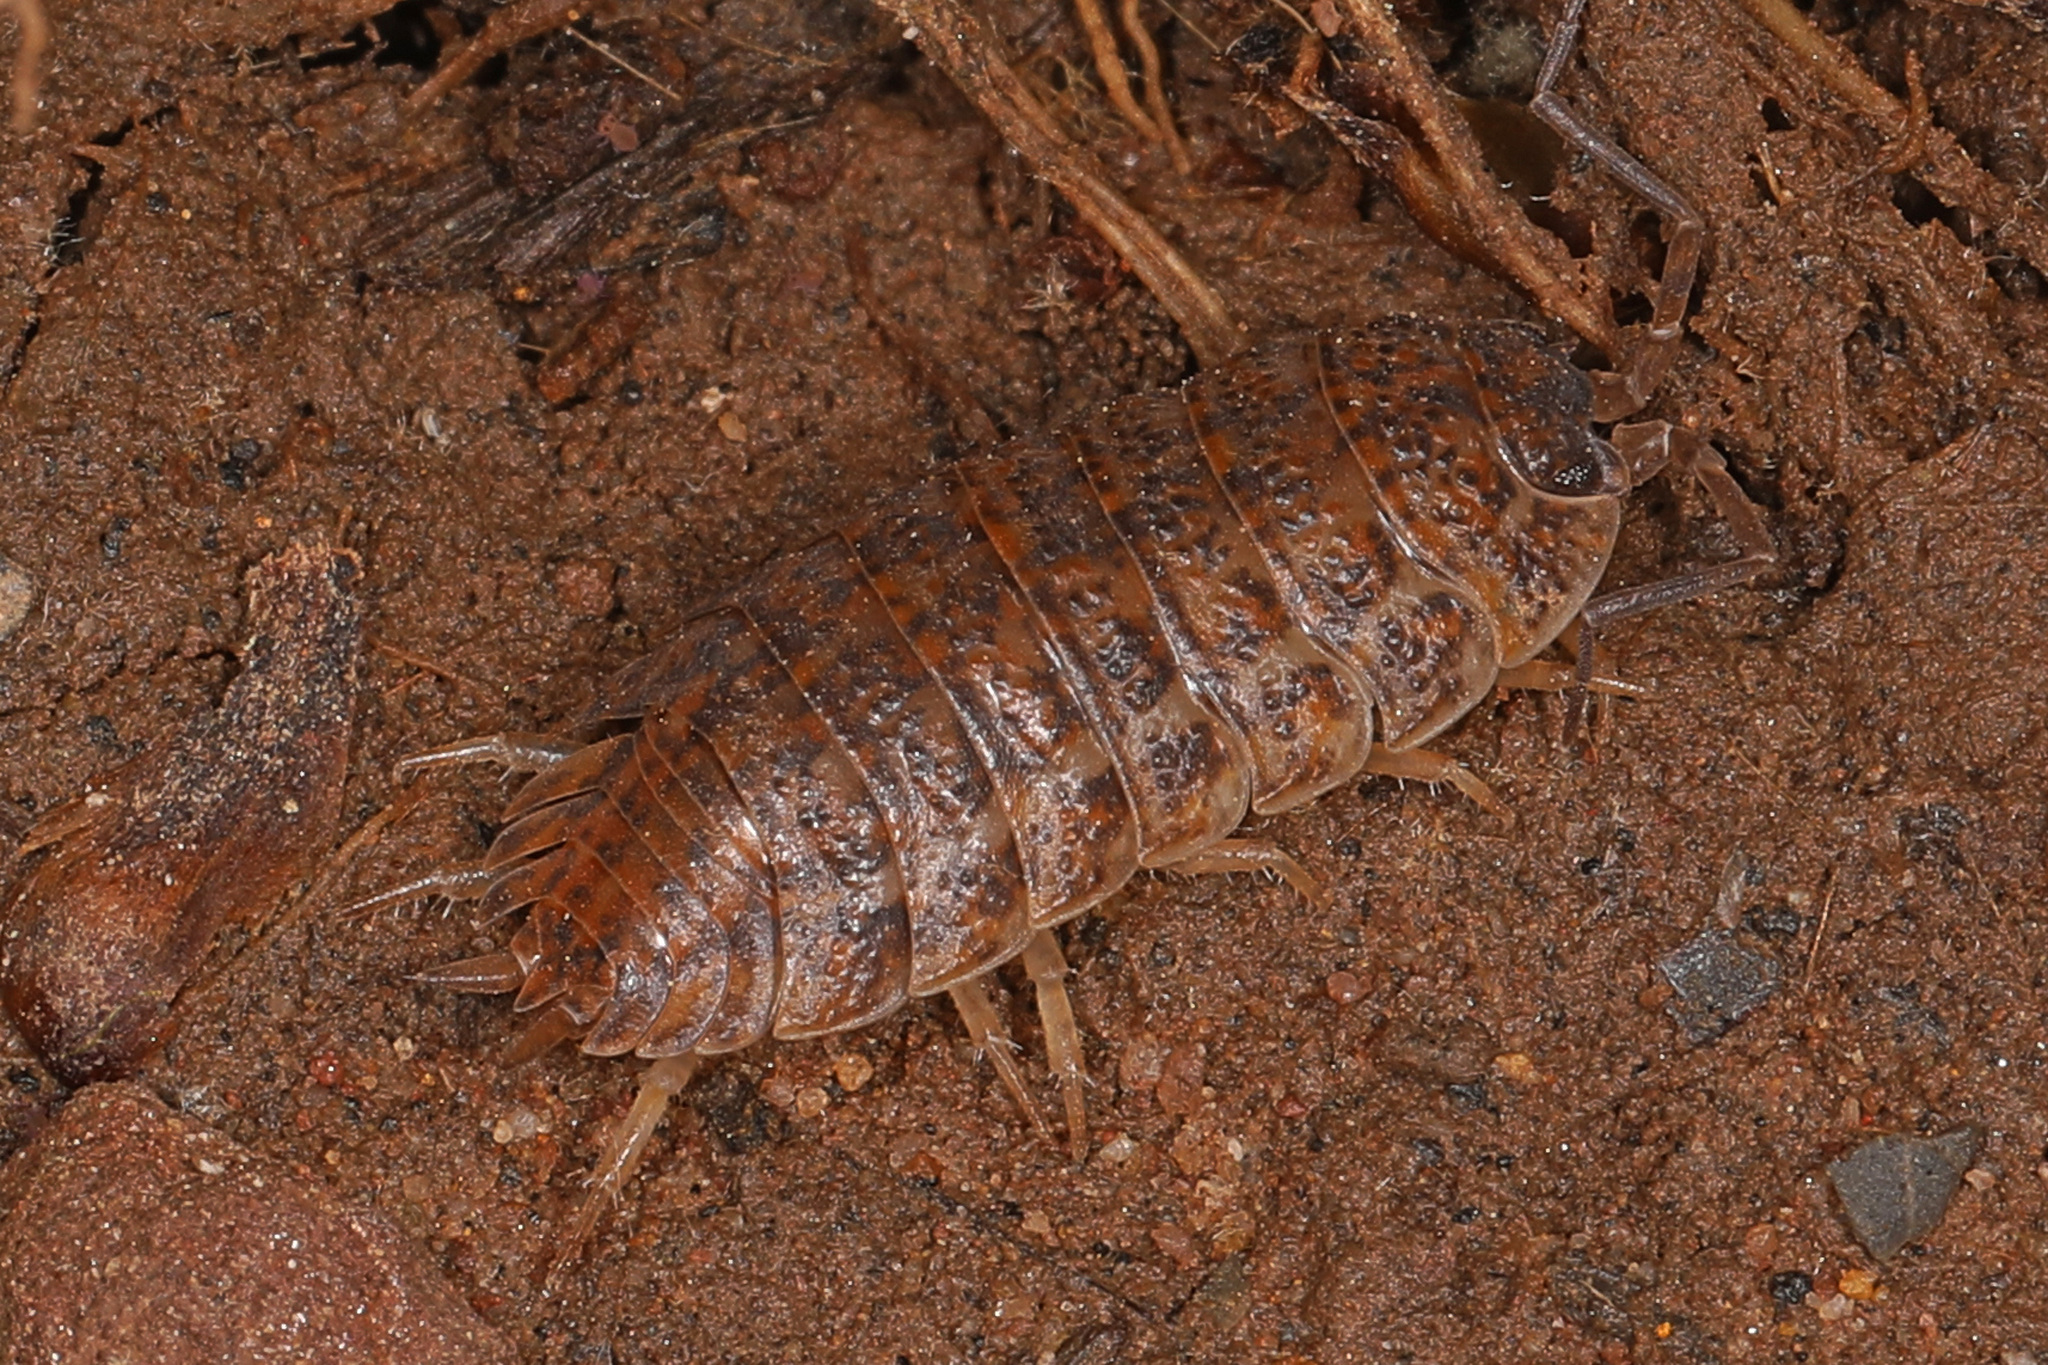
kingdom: Animalia
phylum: Arthropoda
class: Malacostraca
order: Isopoda
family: Trachelipodidae
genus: Trachelipus
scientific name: Trachelipus rathkii
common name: Isopod
